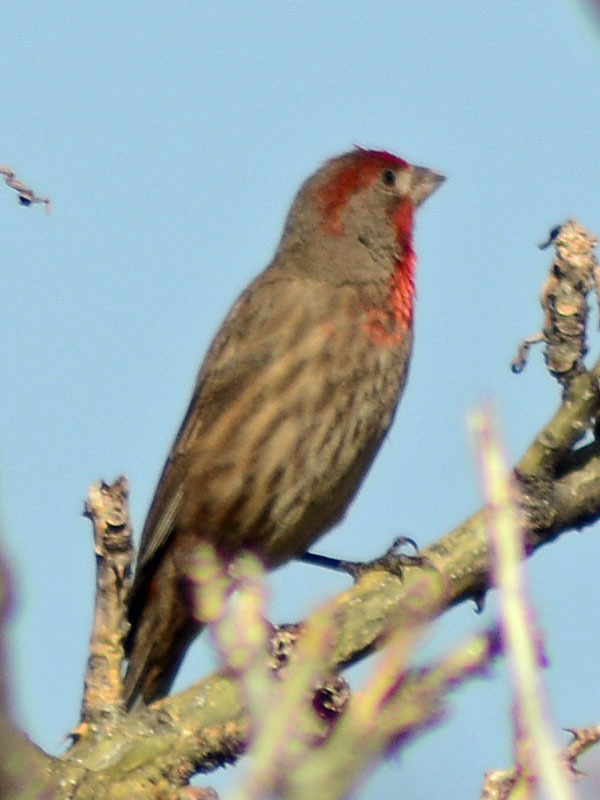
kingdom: Animalia
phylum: Chordata
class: Aves
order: Passeriformes
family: Fringillidae
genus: Haemorhous
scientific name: Haemorhous mexicanus
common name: House finch
